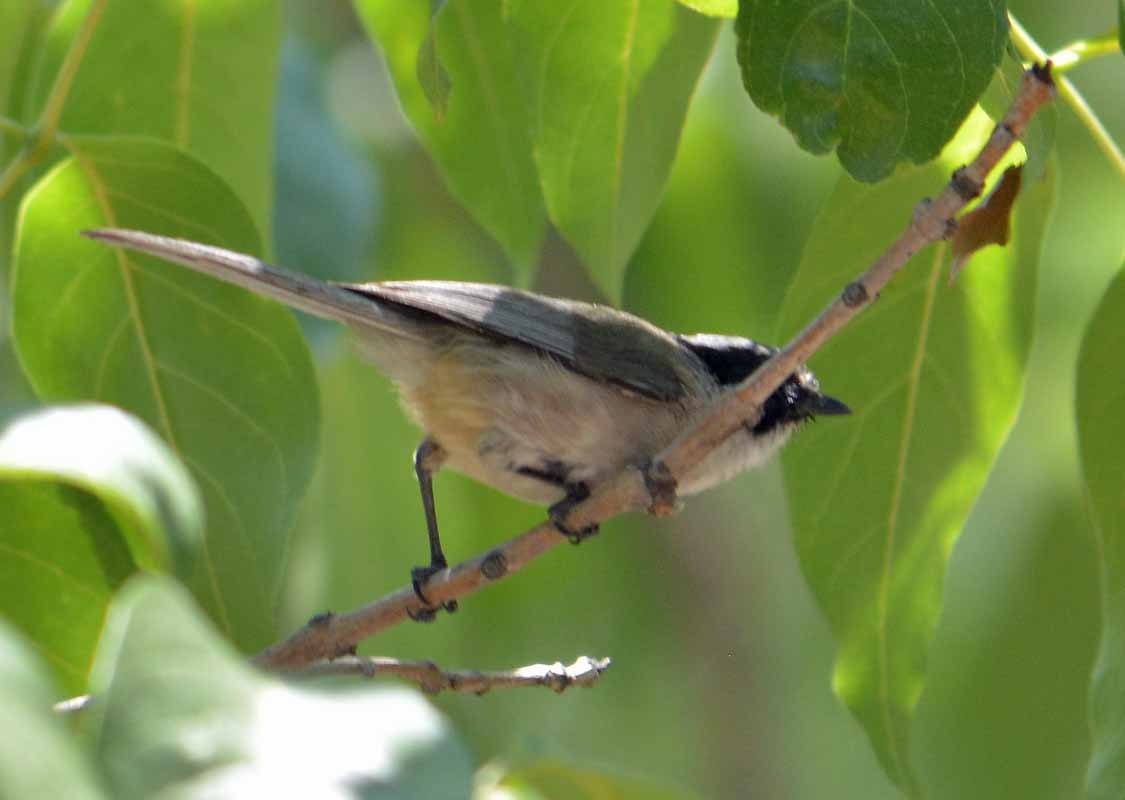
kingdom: Animalia
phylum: Chordata
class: Aves
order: Passeriformes
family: Aegithalidae
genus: Psaltriparus
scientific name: Psaltriparus minimus
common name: American bushtit
